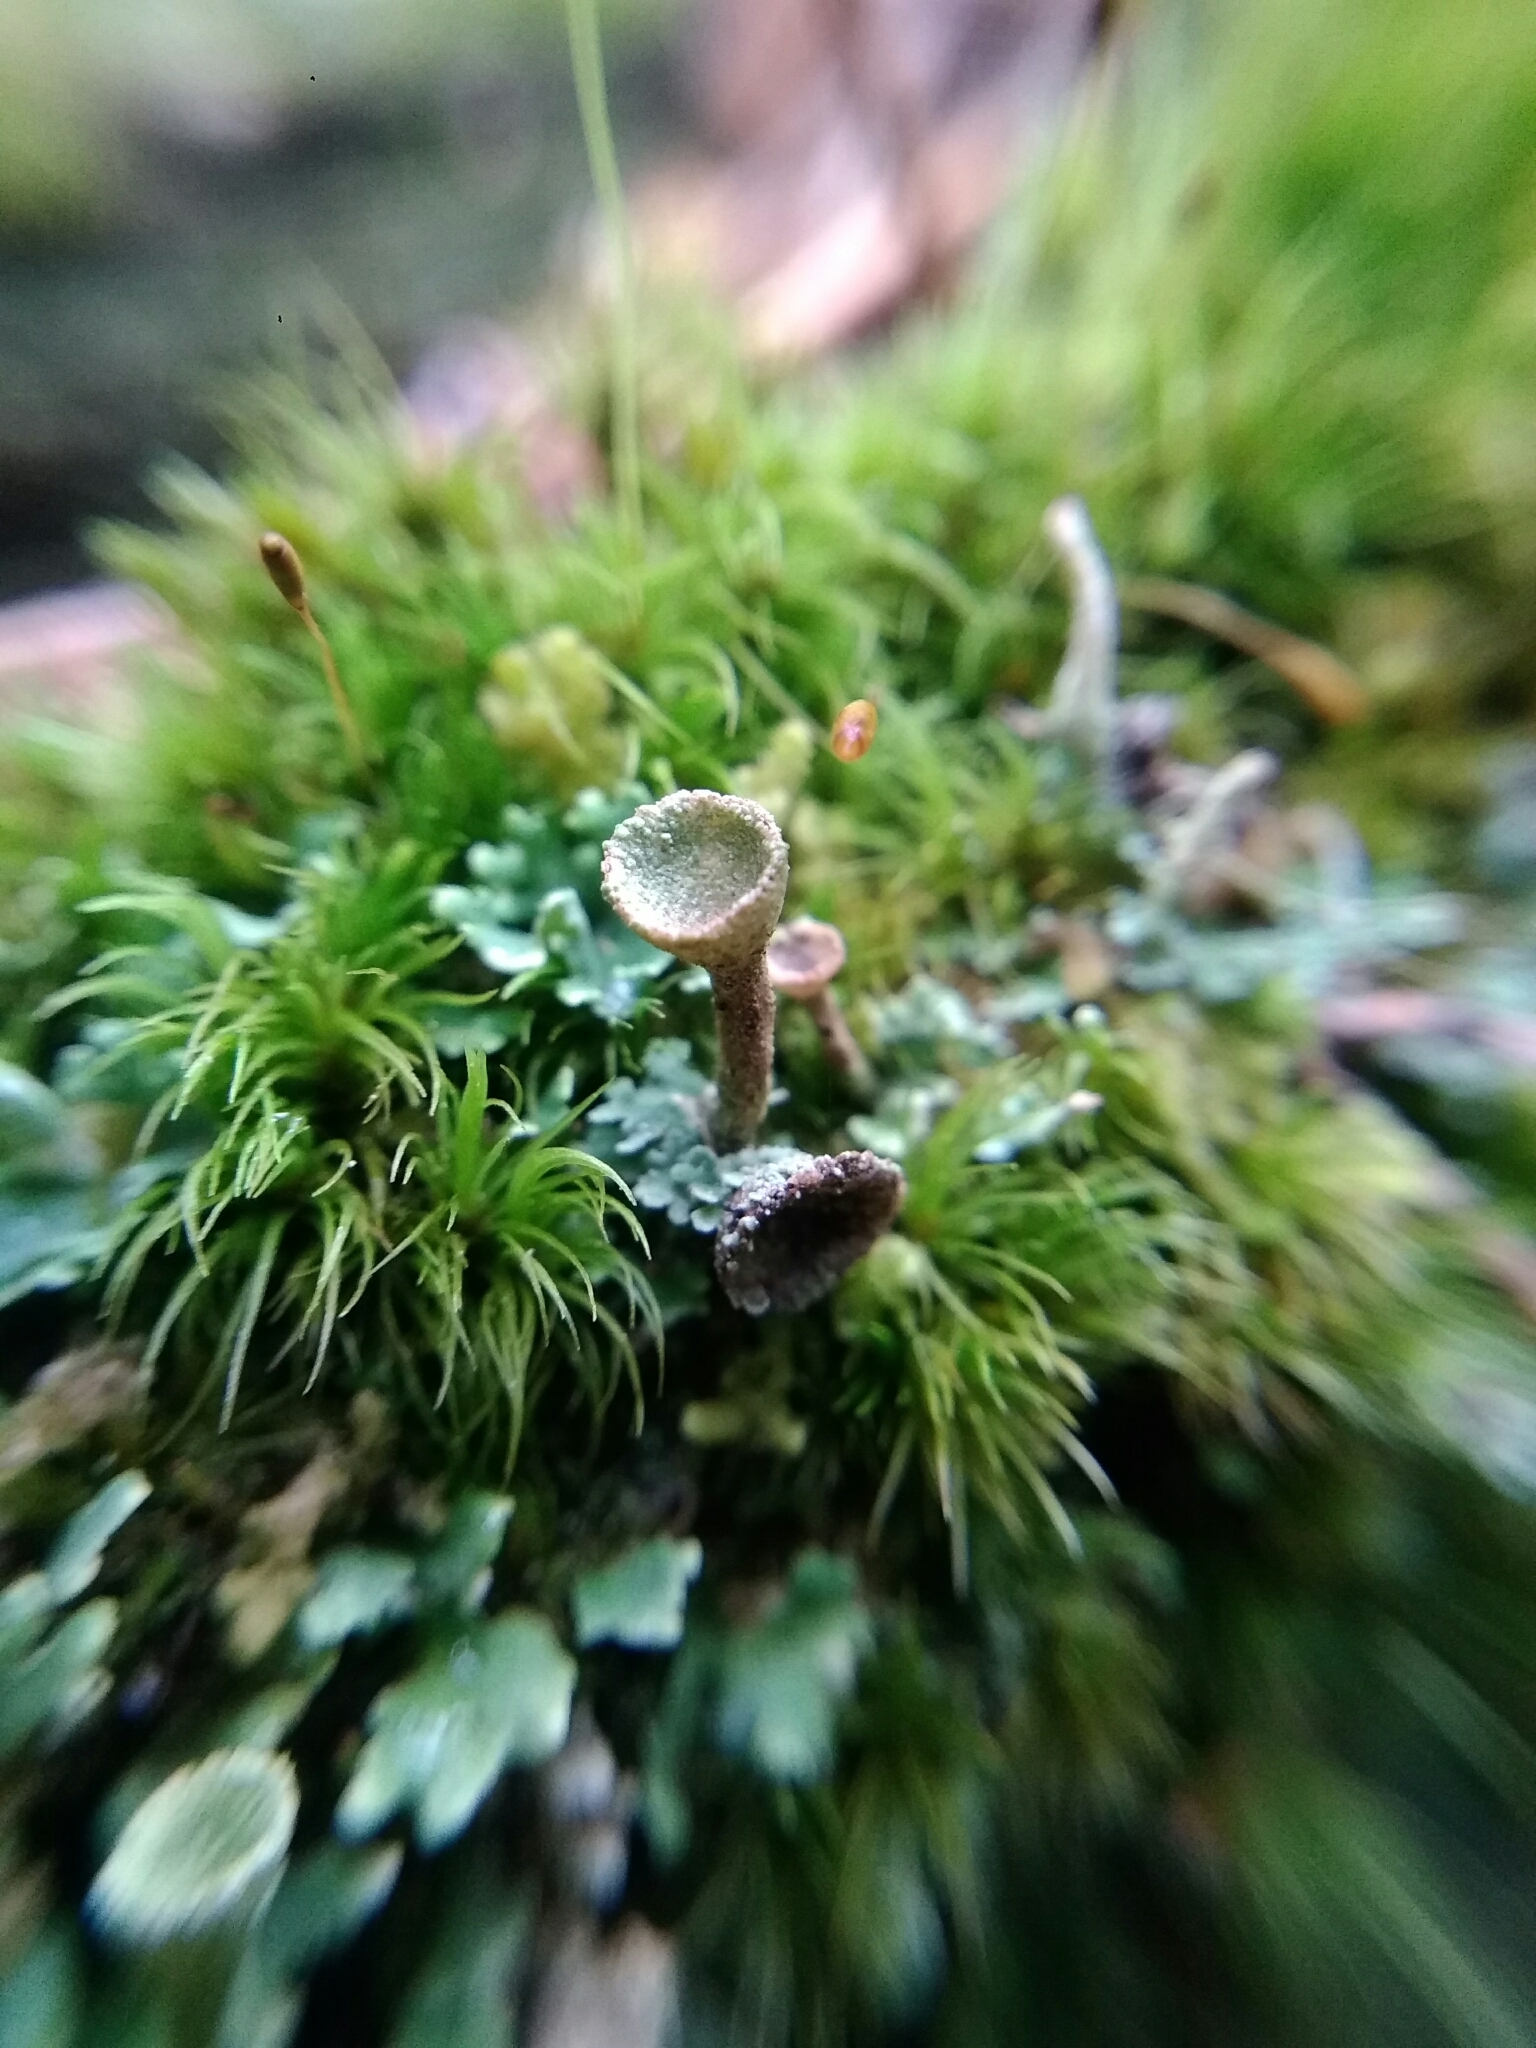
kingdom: Fungi
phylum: Ascomycota
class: Lecanoromycetes
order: Lecanorales
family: Cladoniaceae
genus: Cladonia
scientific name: Cladonia fimbriata
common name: Powdered trumpet lichen
